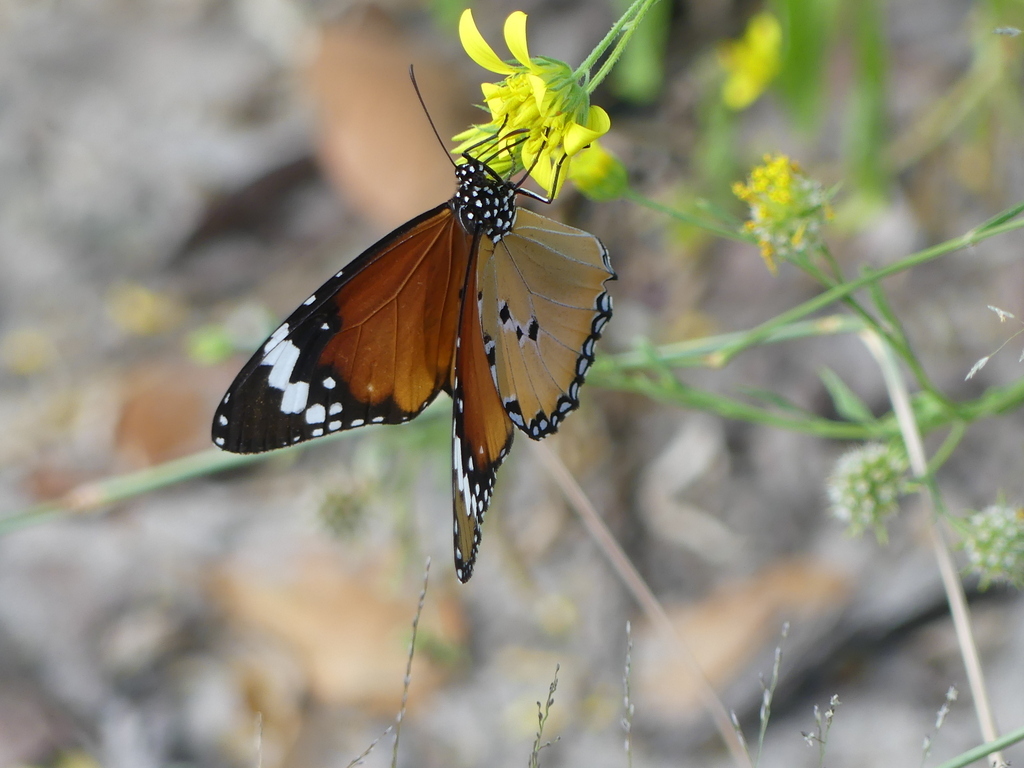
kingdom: Animalia
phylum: Arthropoda
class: Insecta
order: Lepidoptera
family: Nymphalidae
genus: Danaus
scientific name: Danaus chrysippus
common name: Plain tiger
